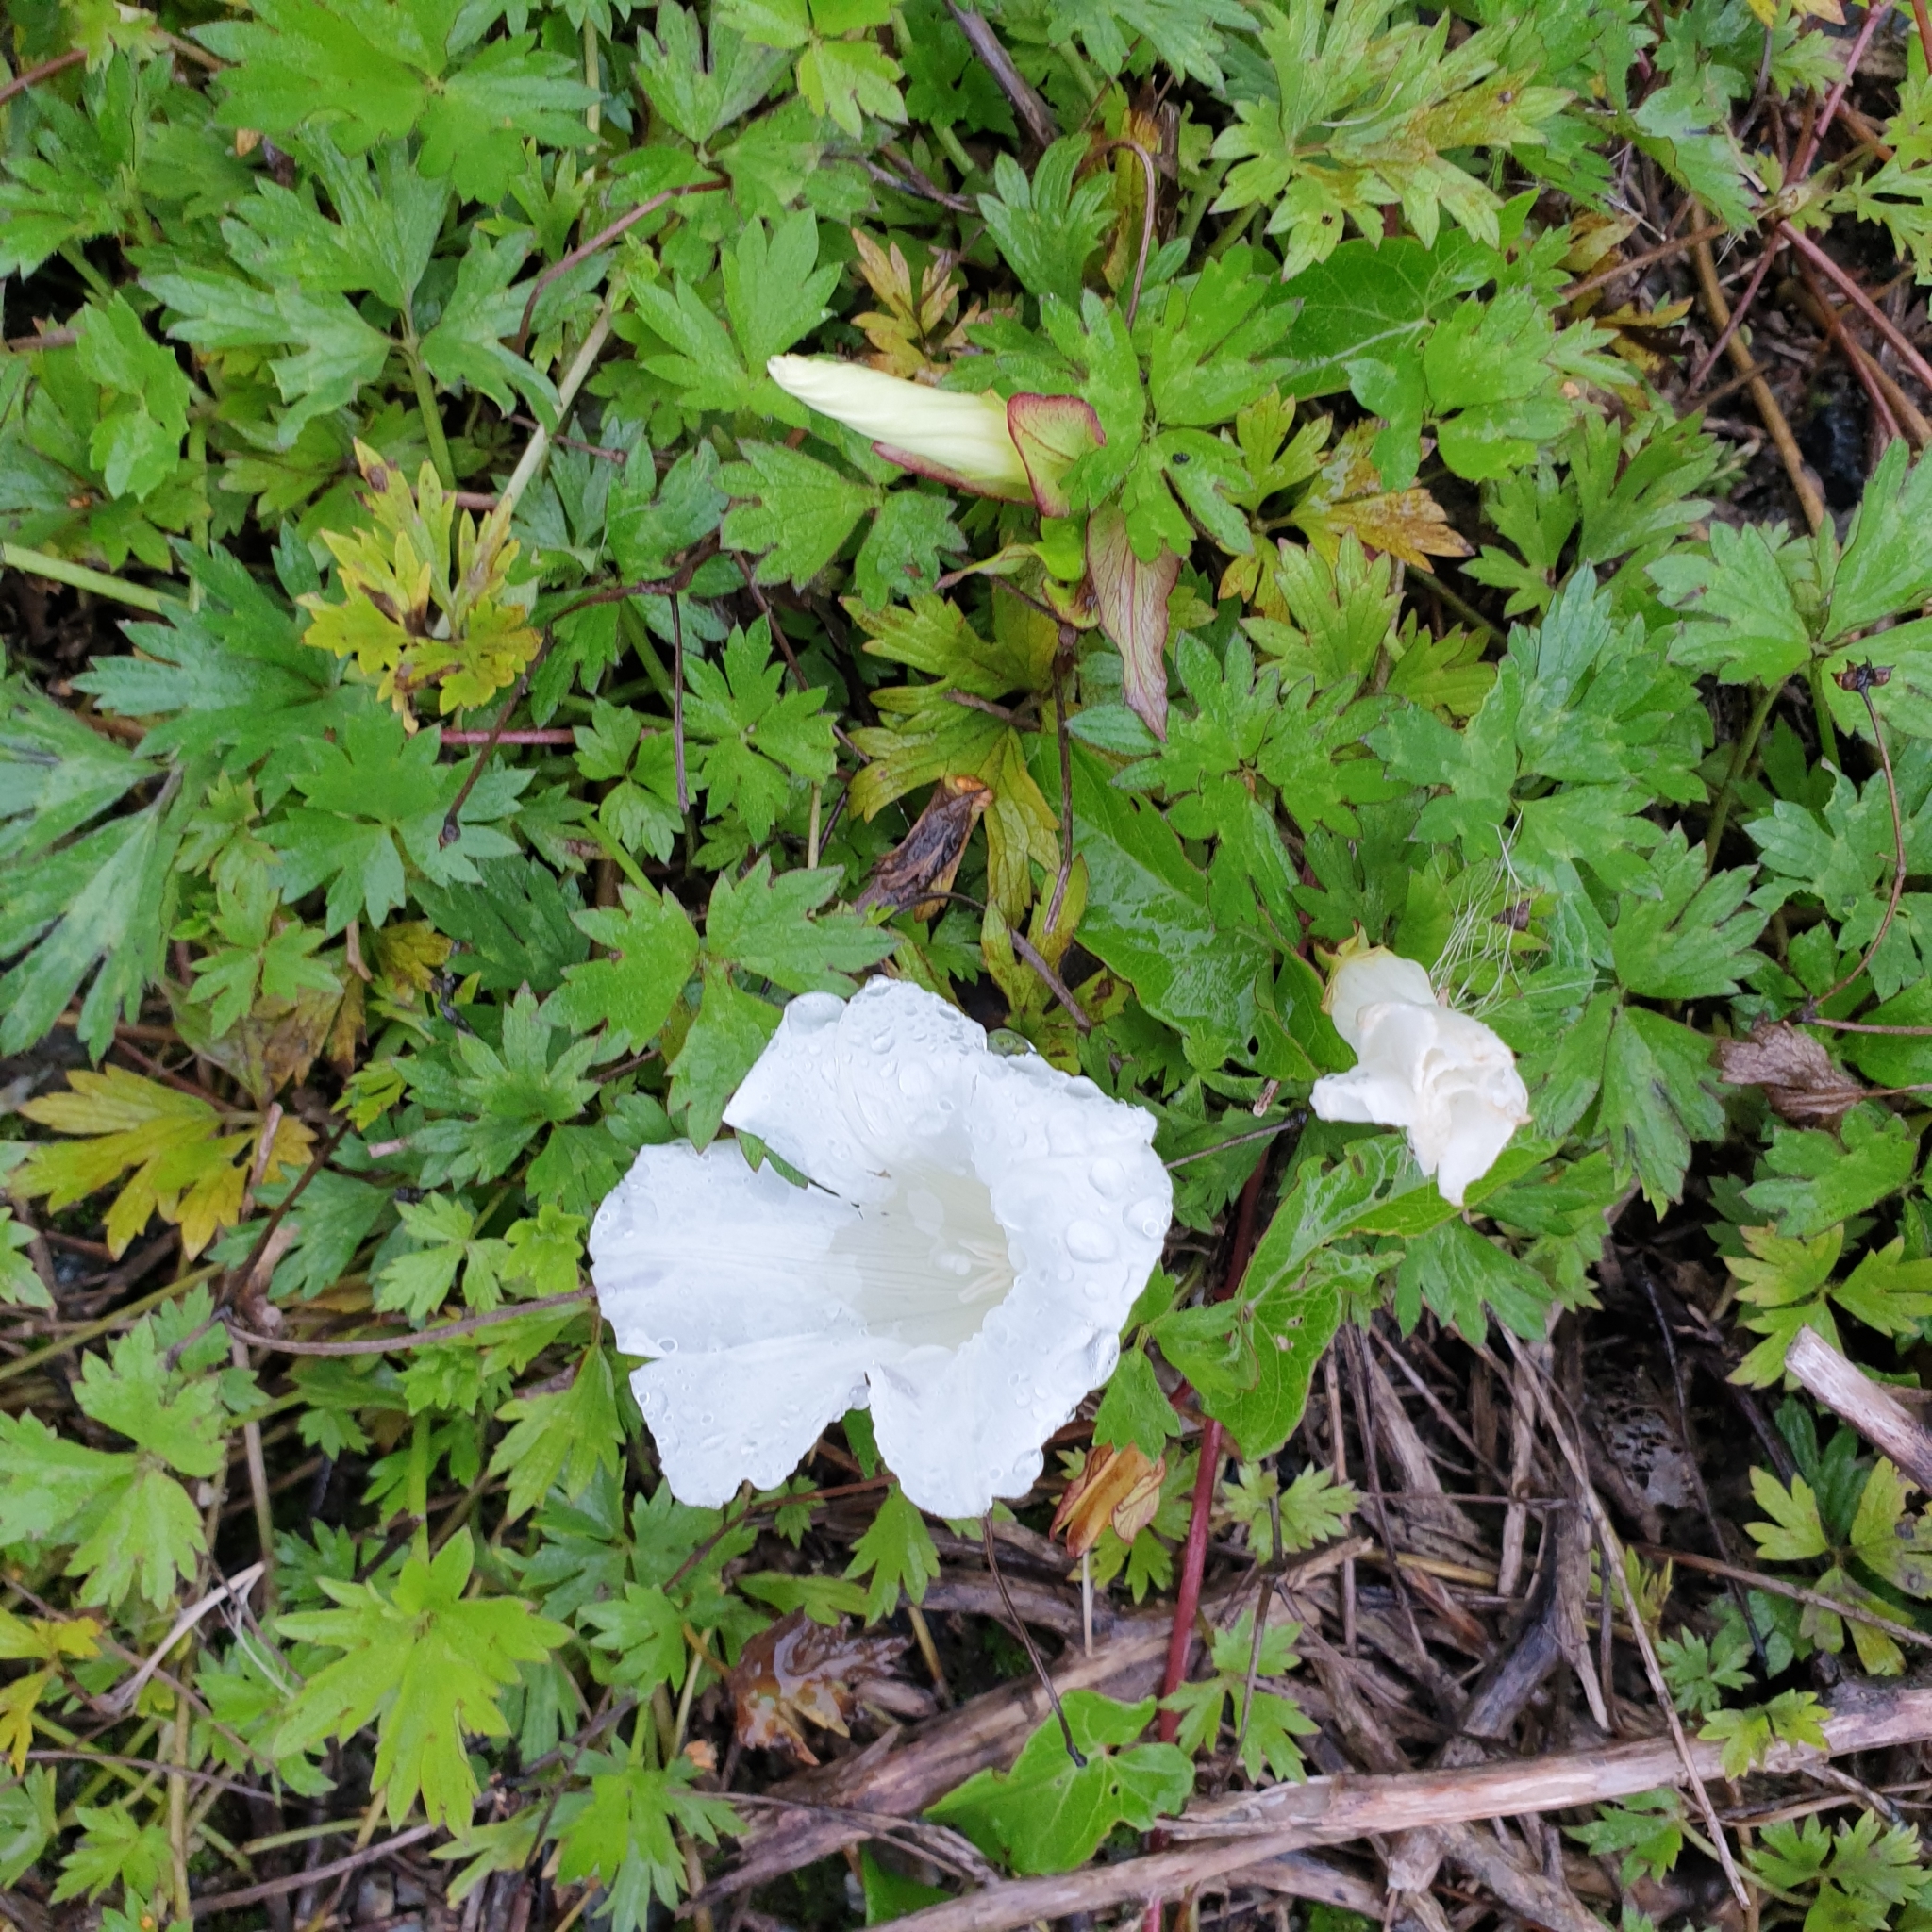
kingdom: Plantae
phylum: Tracheophyta
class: Magnoliopsida
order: Solanales
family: Convolvulaceae
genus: Calystegia
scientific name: Calystegia sepium
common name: Hedge bindweed
